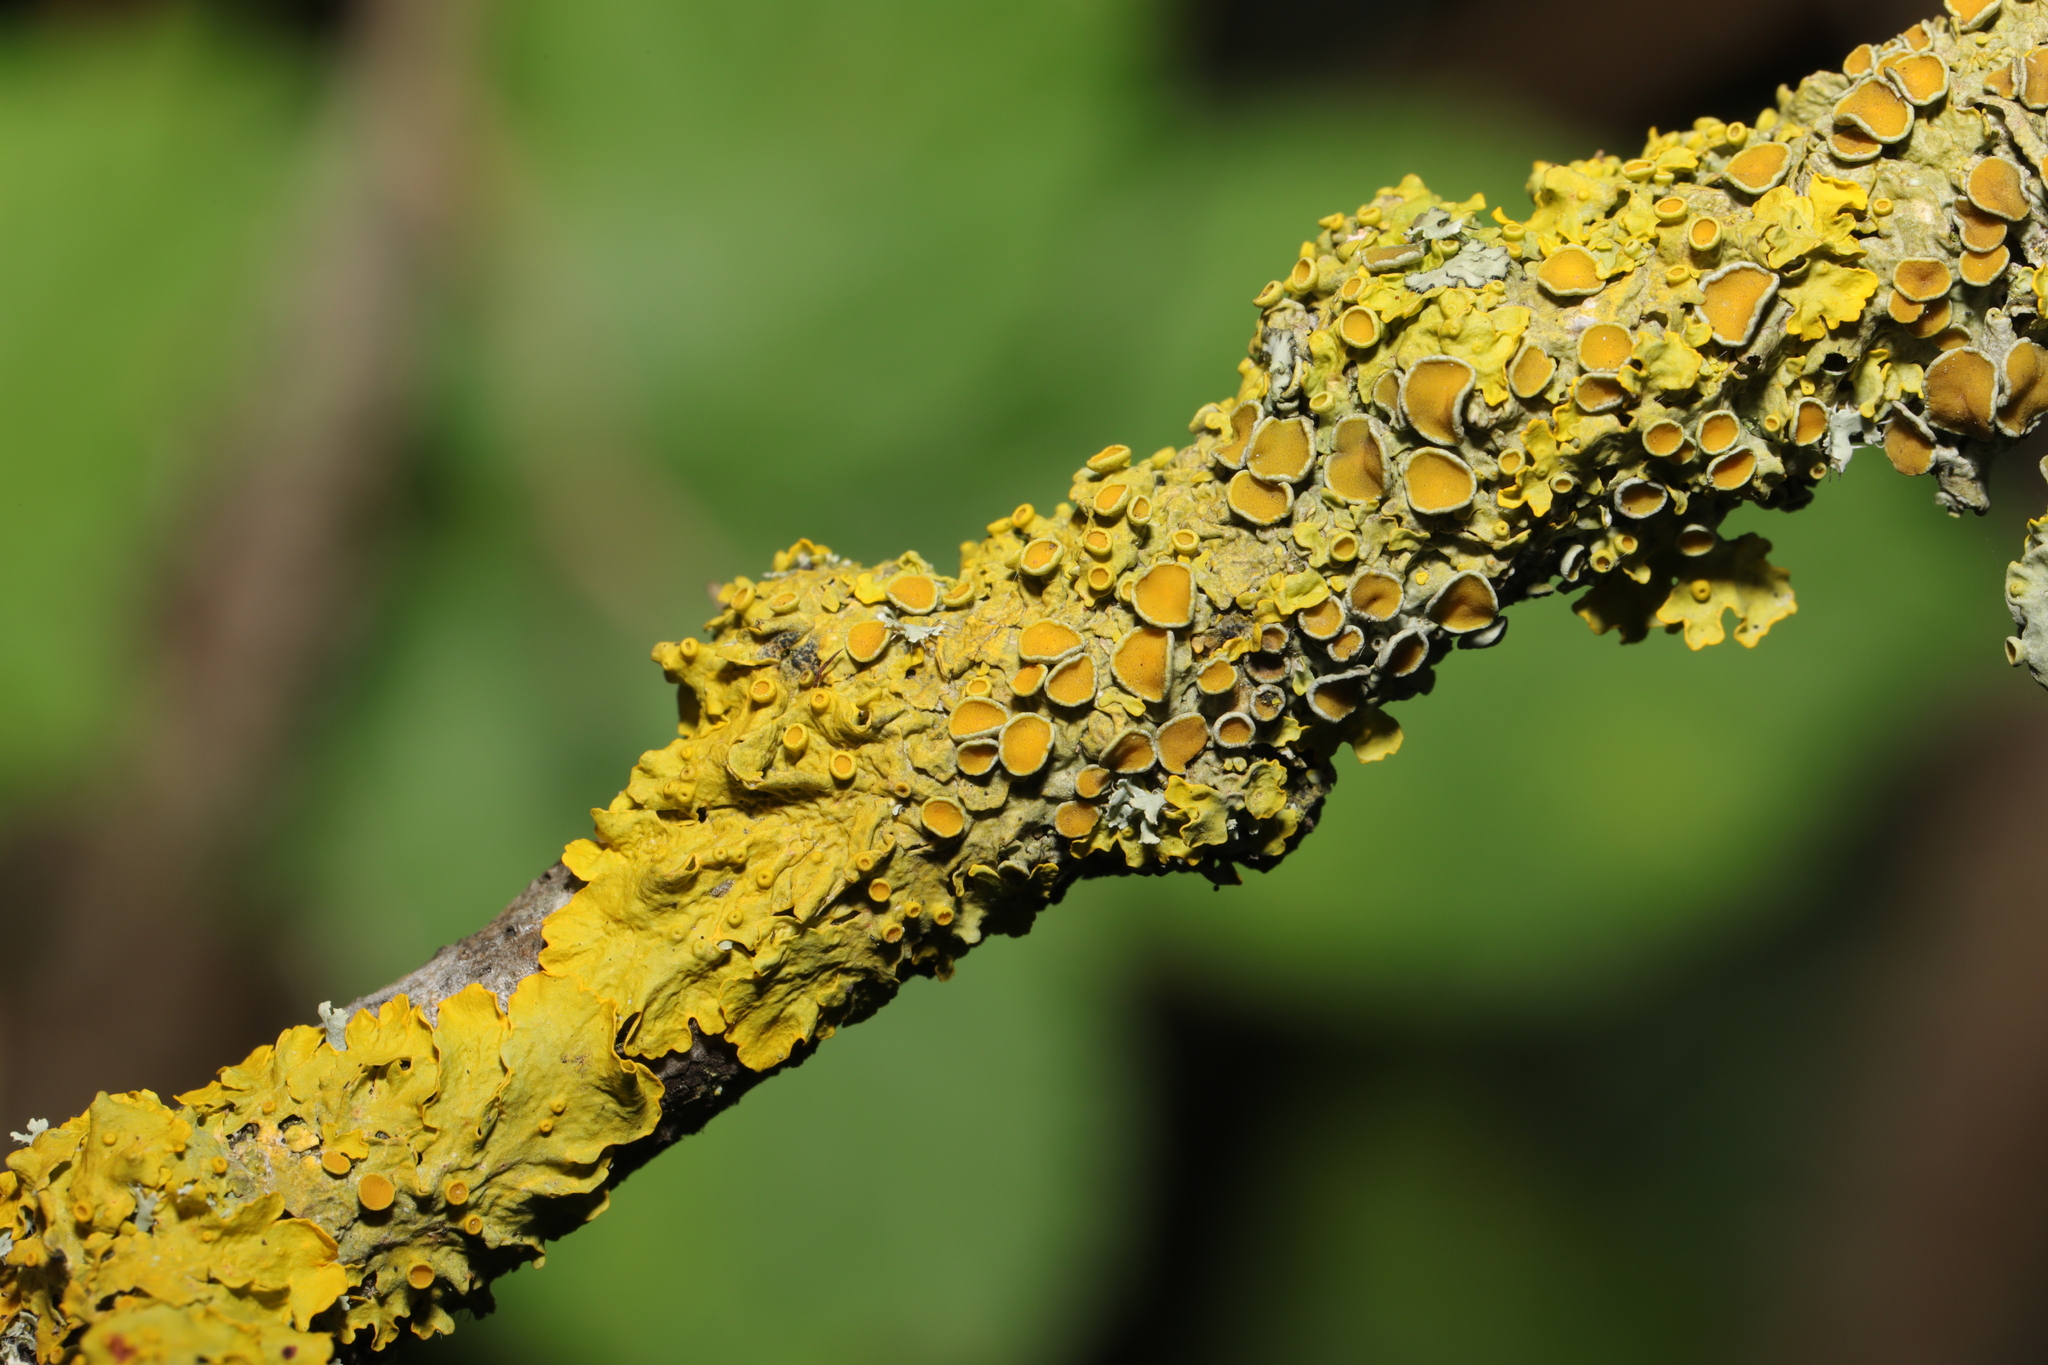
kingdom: Fungi
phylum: Ascomycota
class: Lecanoromycetes
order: Teloschistales
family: Teloschistaceae
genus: Xanthoria
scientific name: Xanthoria parietina
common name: Common orange lichen
